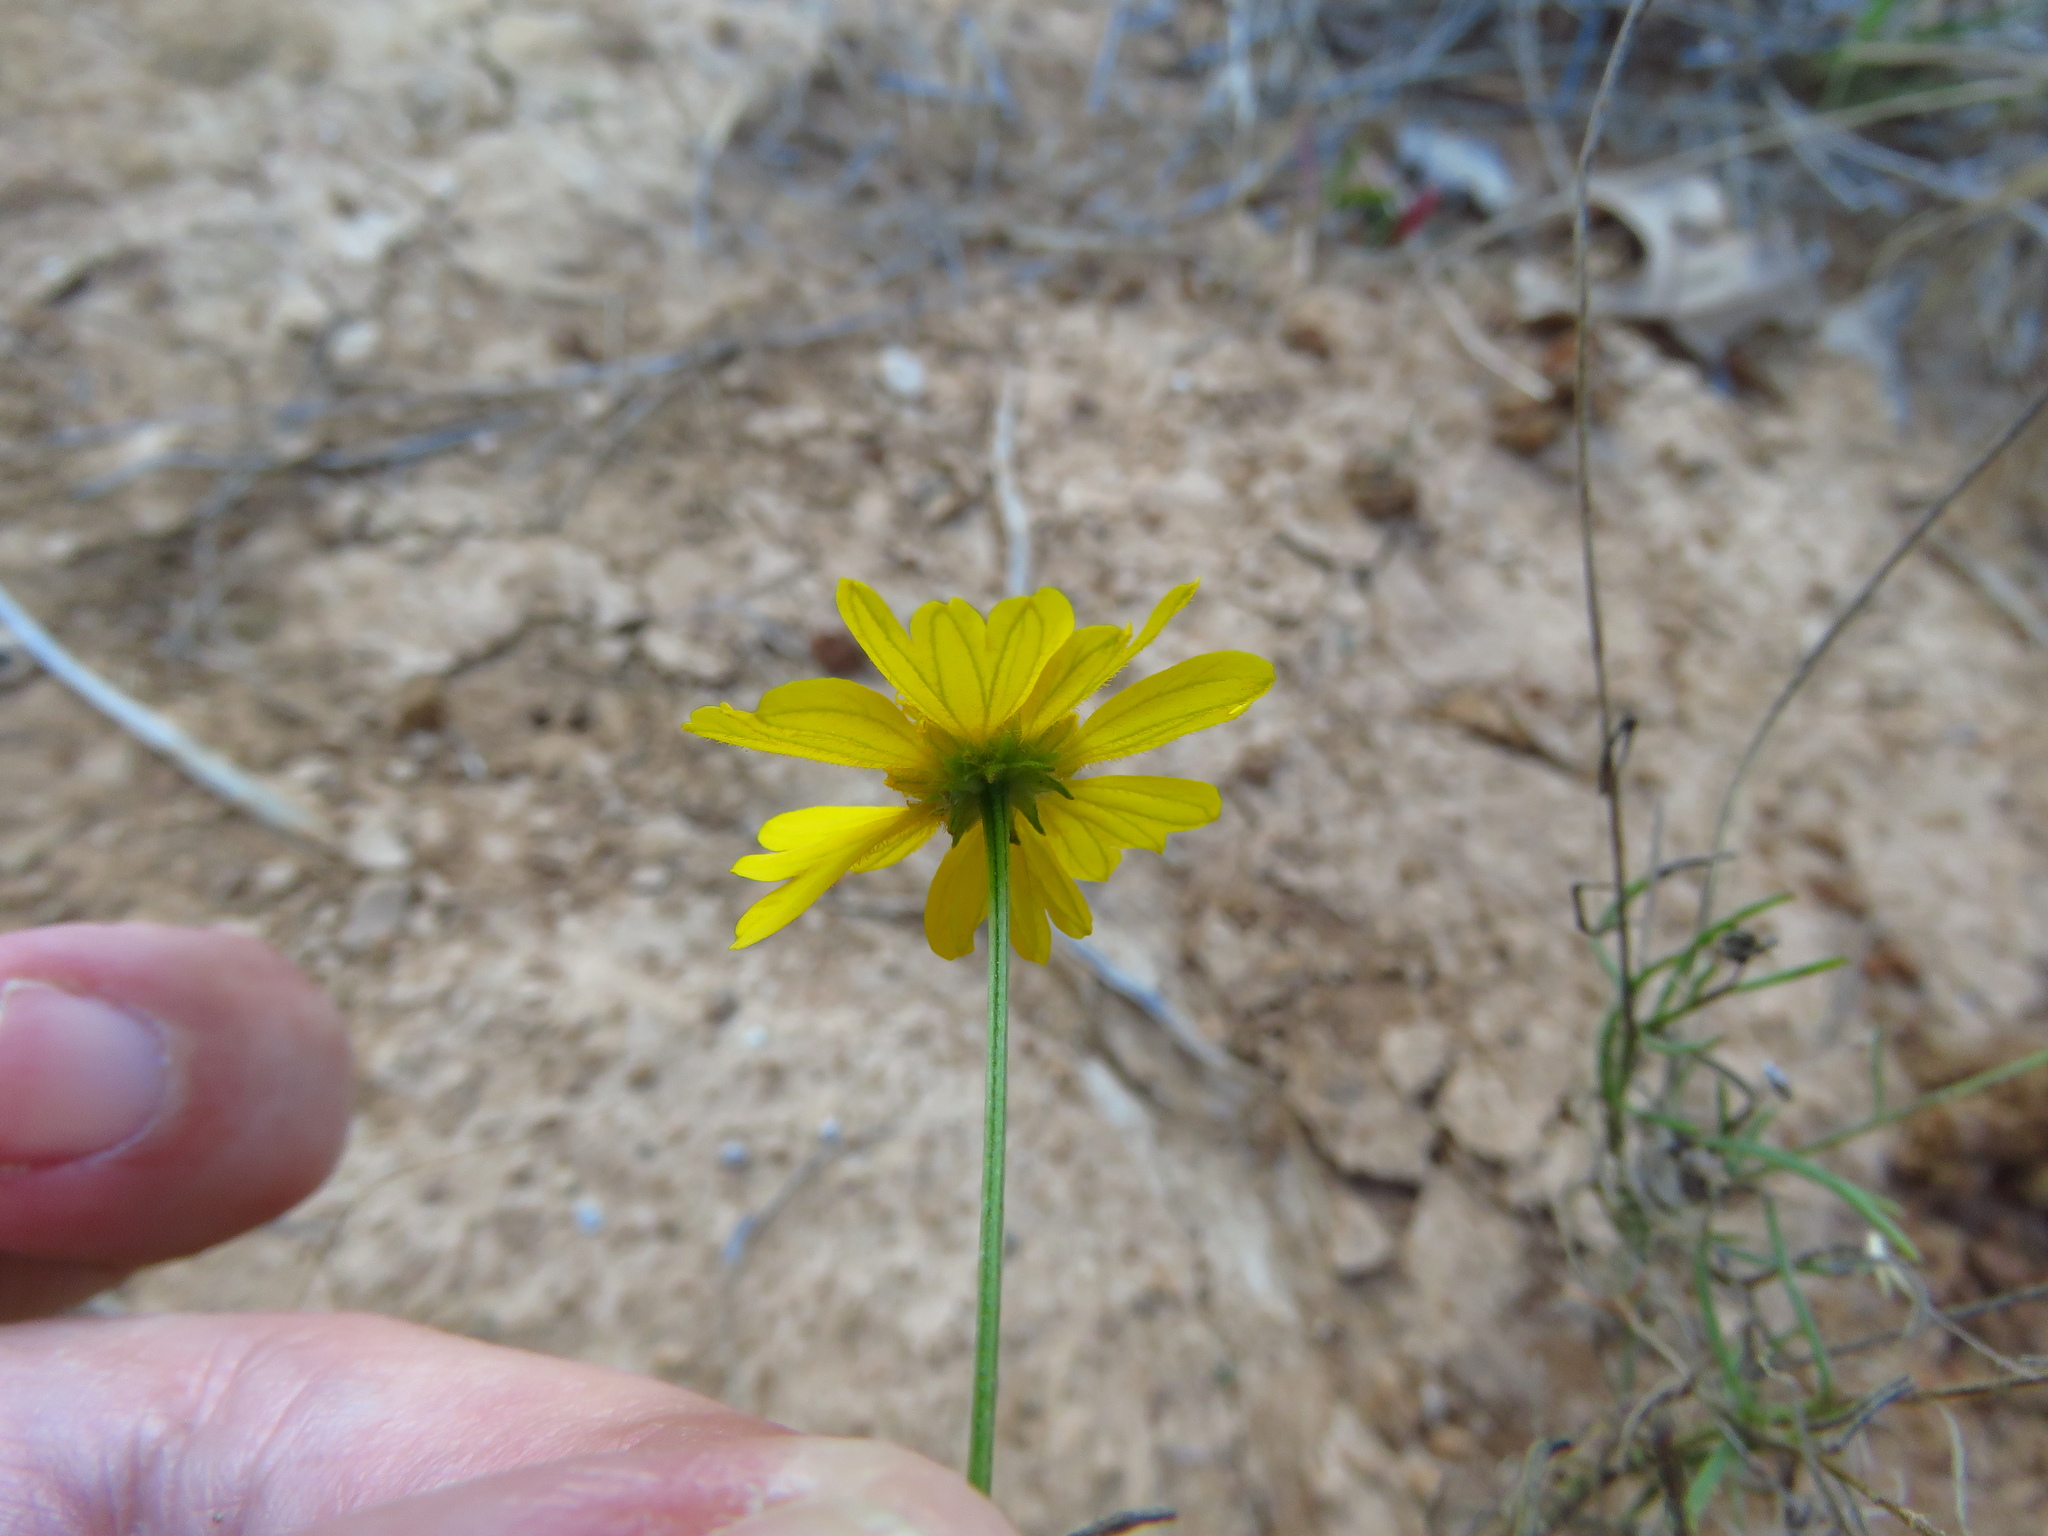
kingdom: Plantae
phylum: Tracheophyta
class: Magnoliopsida
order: Asterales
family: Asteraceae
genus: Helenium
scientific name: Helenium amarum
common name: Bitter sneezeweed
